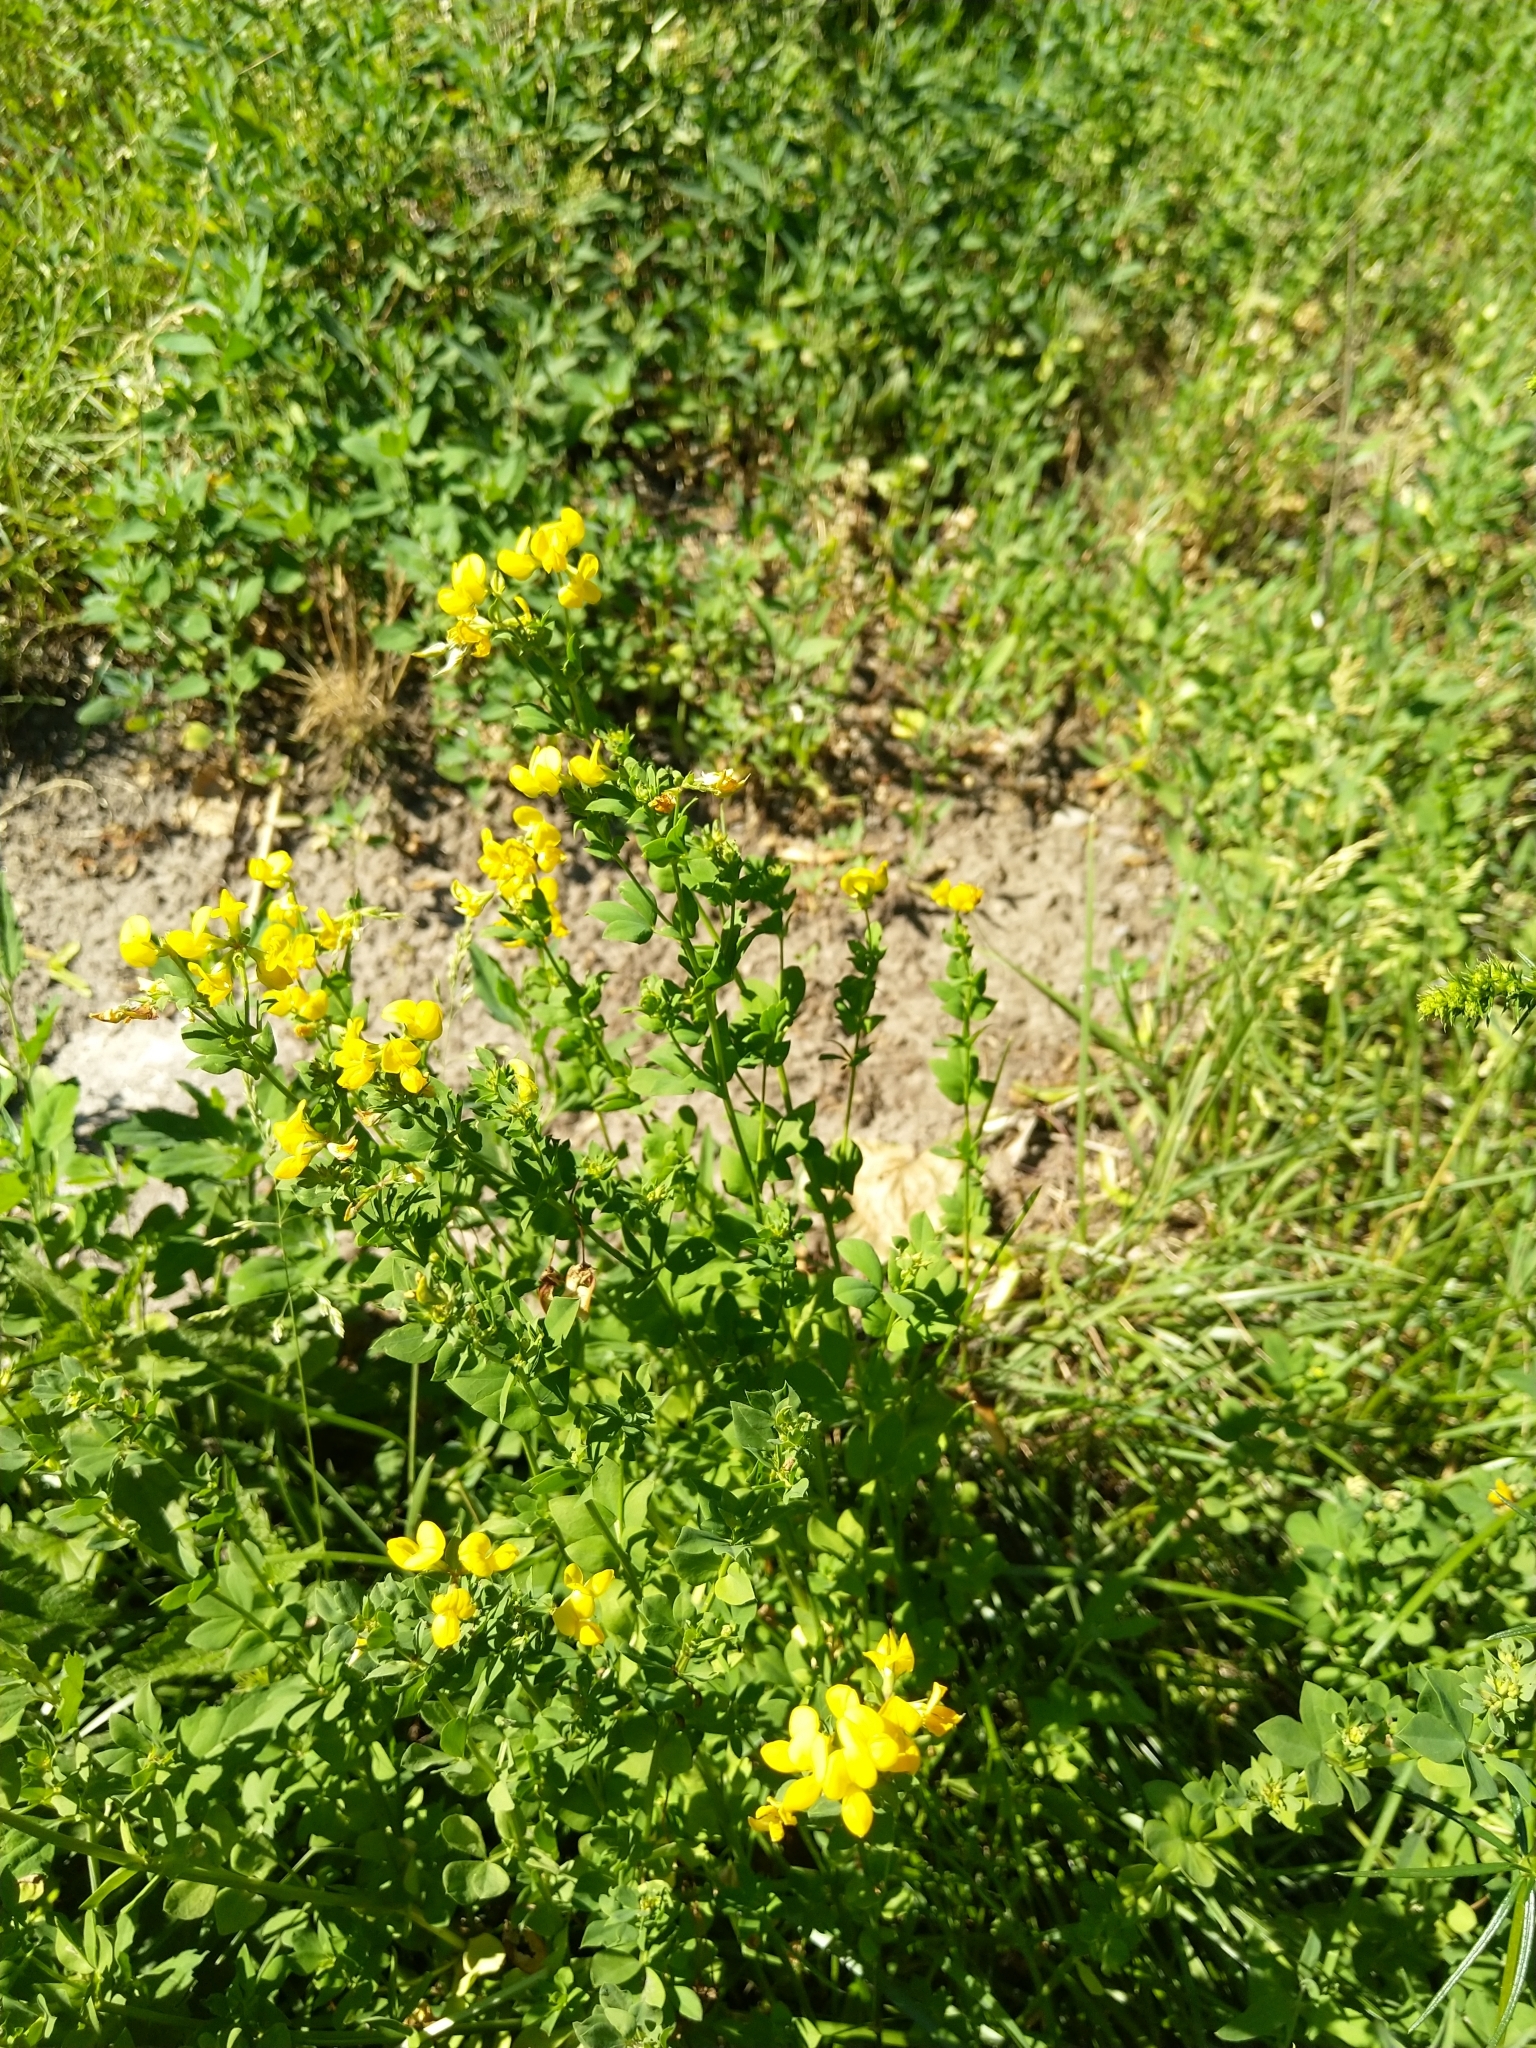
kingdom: Plantae
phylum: Tracheophyta
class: Magnoliopsida
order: Fabales
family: Fabaceae
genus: Lotus
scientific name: Lotus corniculatus
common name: Common bird's-foot-trefoil
